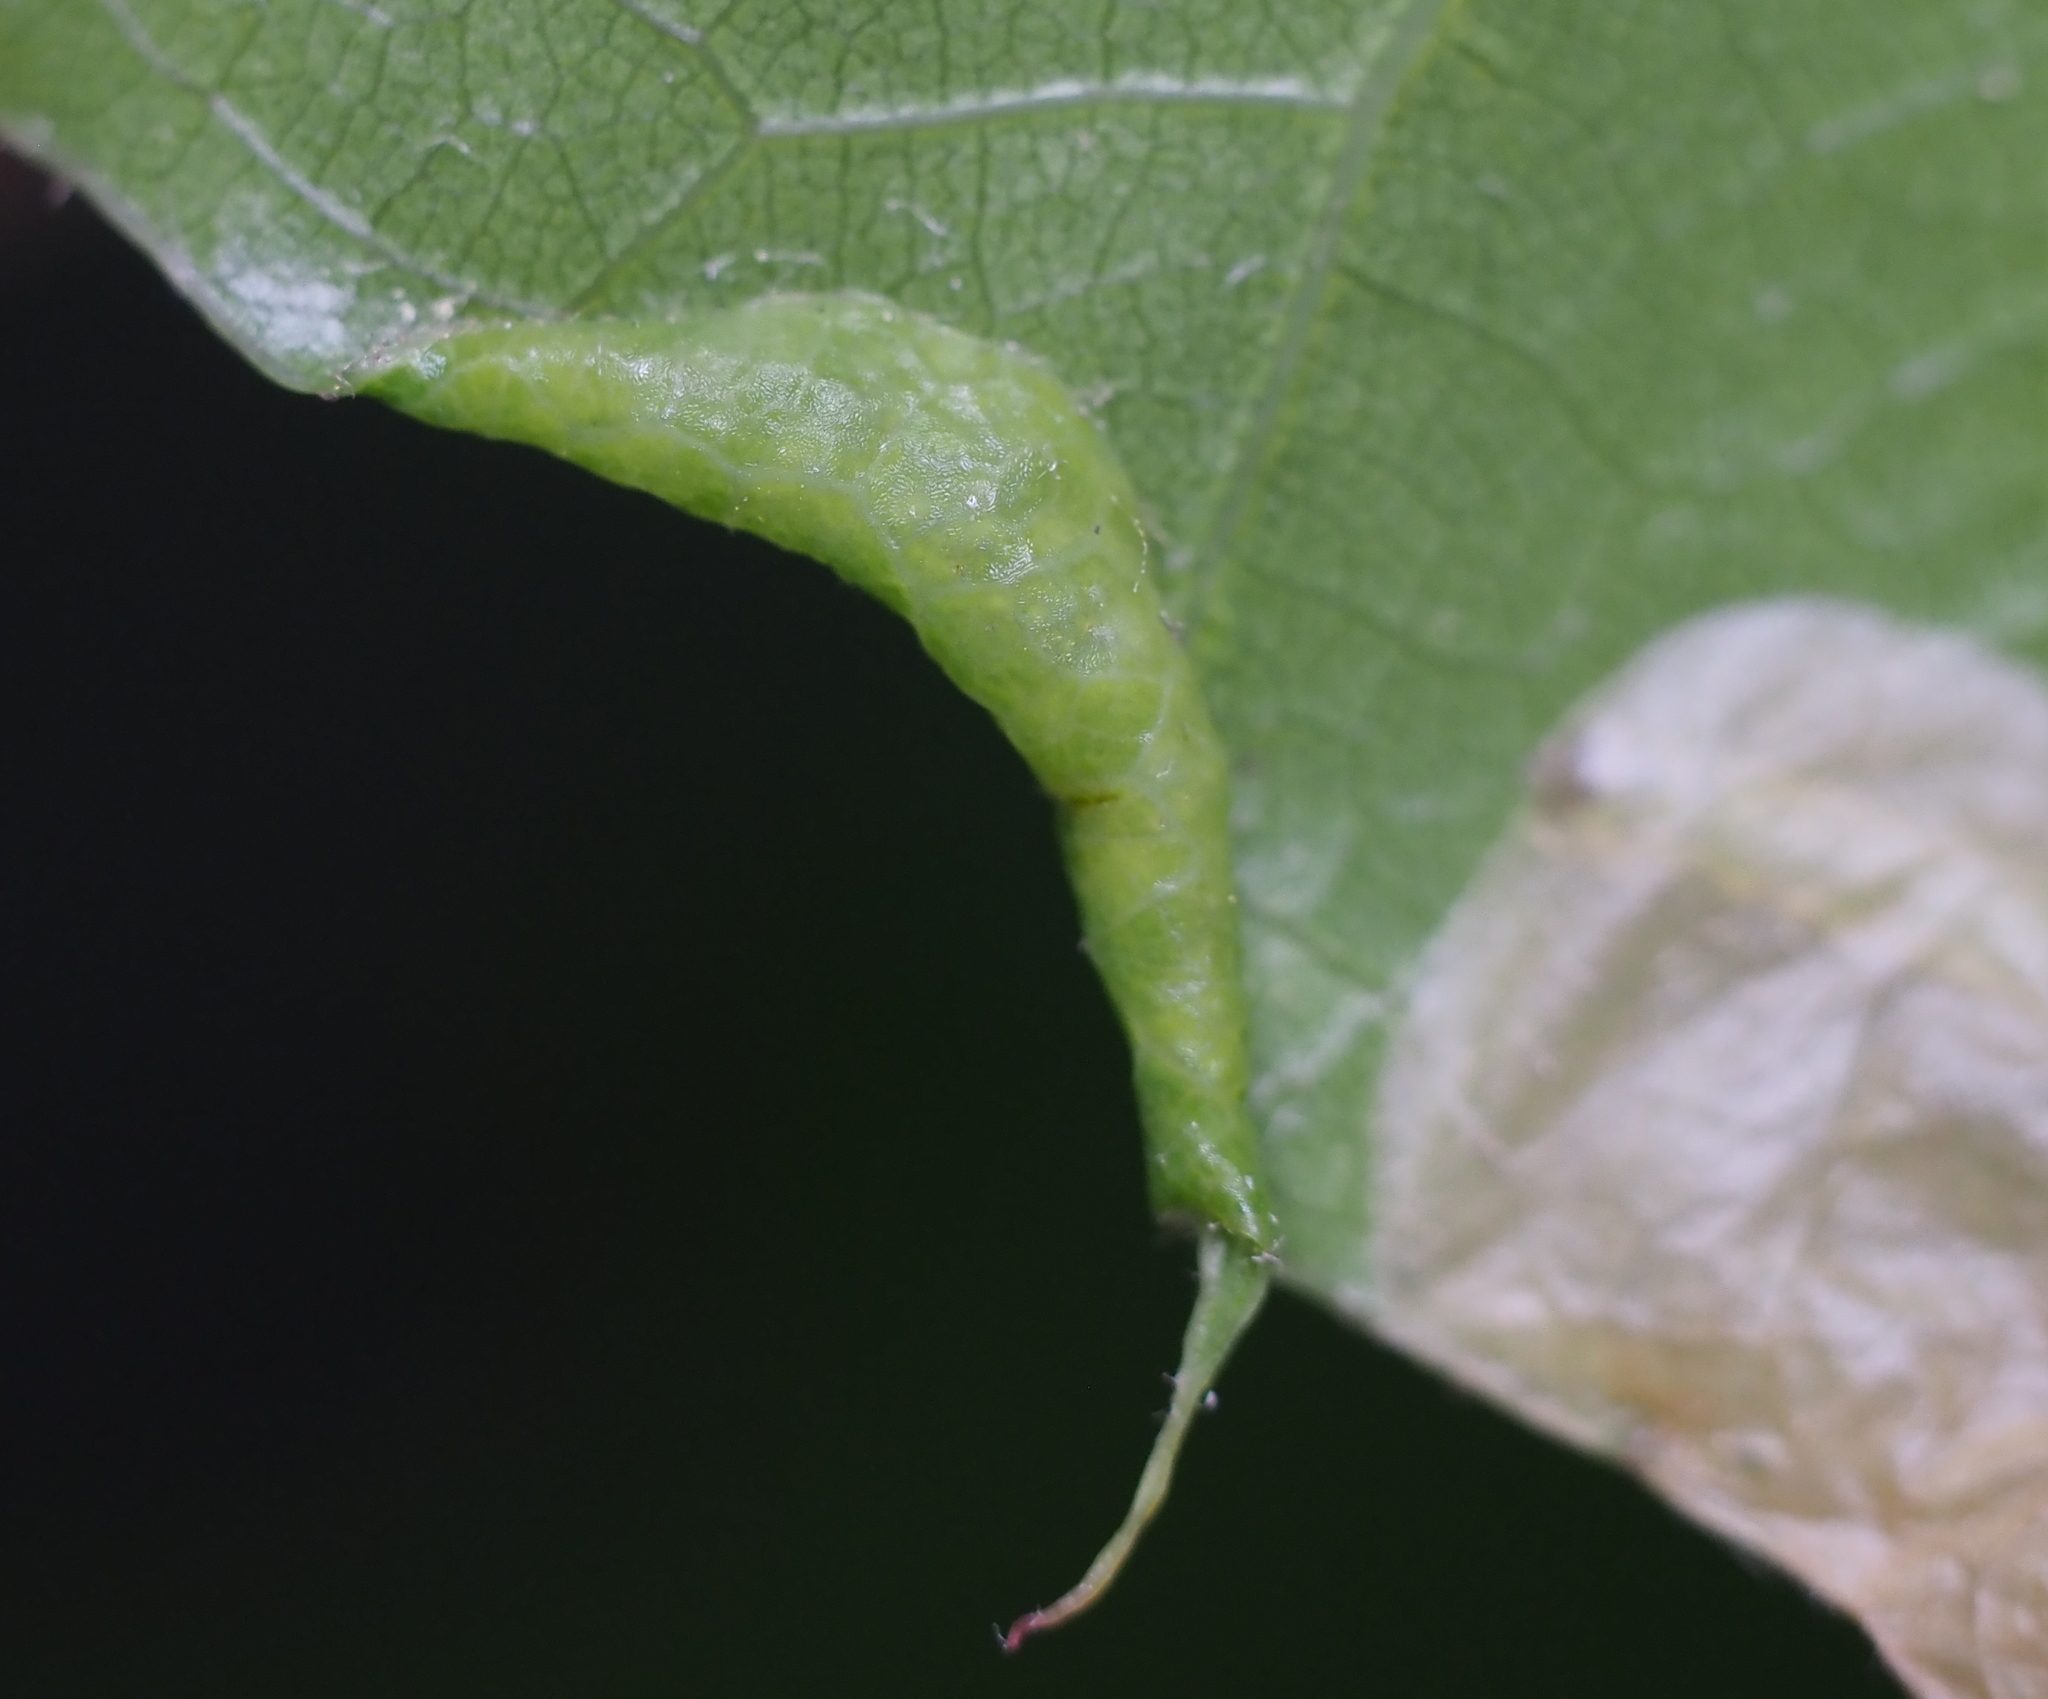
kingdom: Animalia
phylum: Arthropoda
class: Insecta
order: Diptera
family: Cecidomyiidae
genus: Macrodiplosis
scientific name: Macrodiplosis erubescens
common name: Marginal leaf fold gall midge
